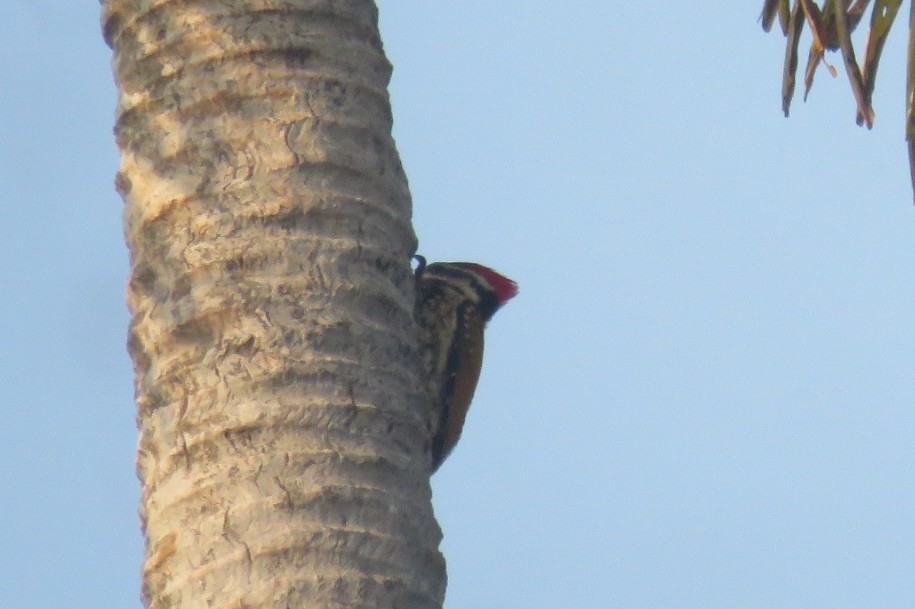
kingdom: Animalia
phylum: Chordata
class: Aves
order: Piciformes
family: Picidae
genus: Dinopium
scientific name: Dinopium benghalense
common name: Black-rumped flameback
